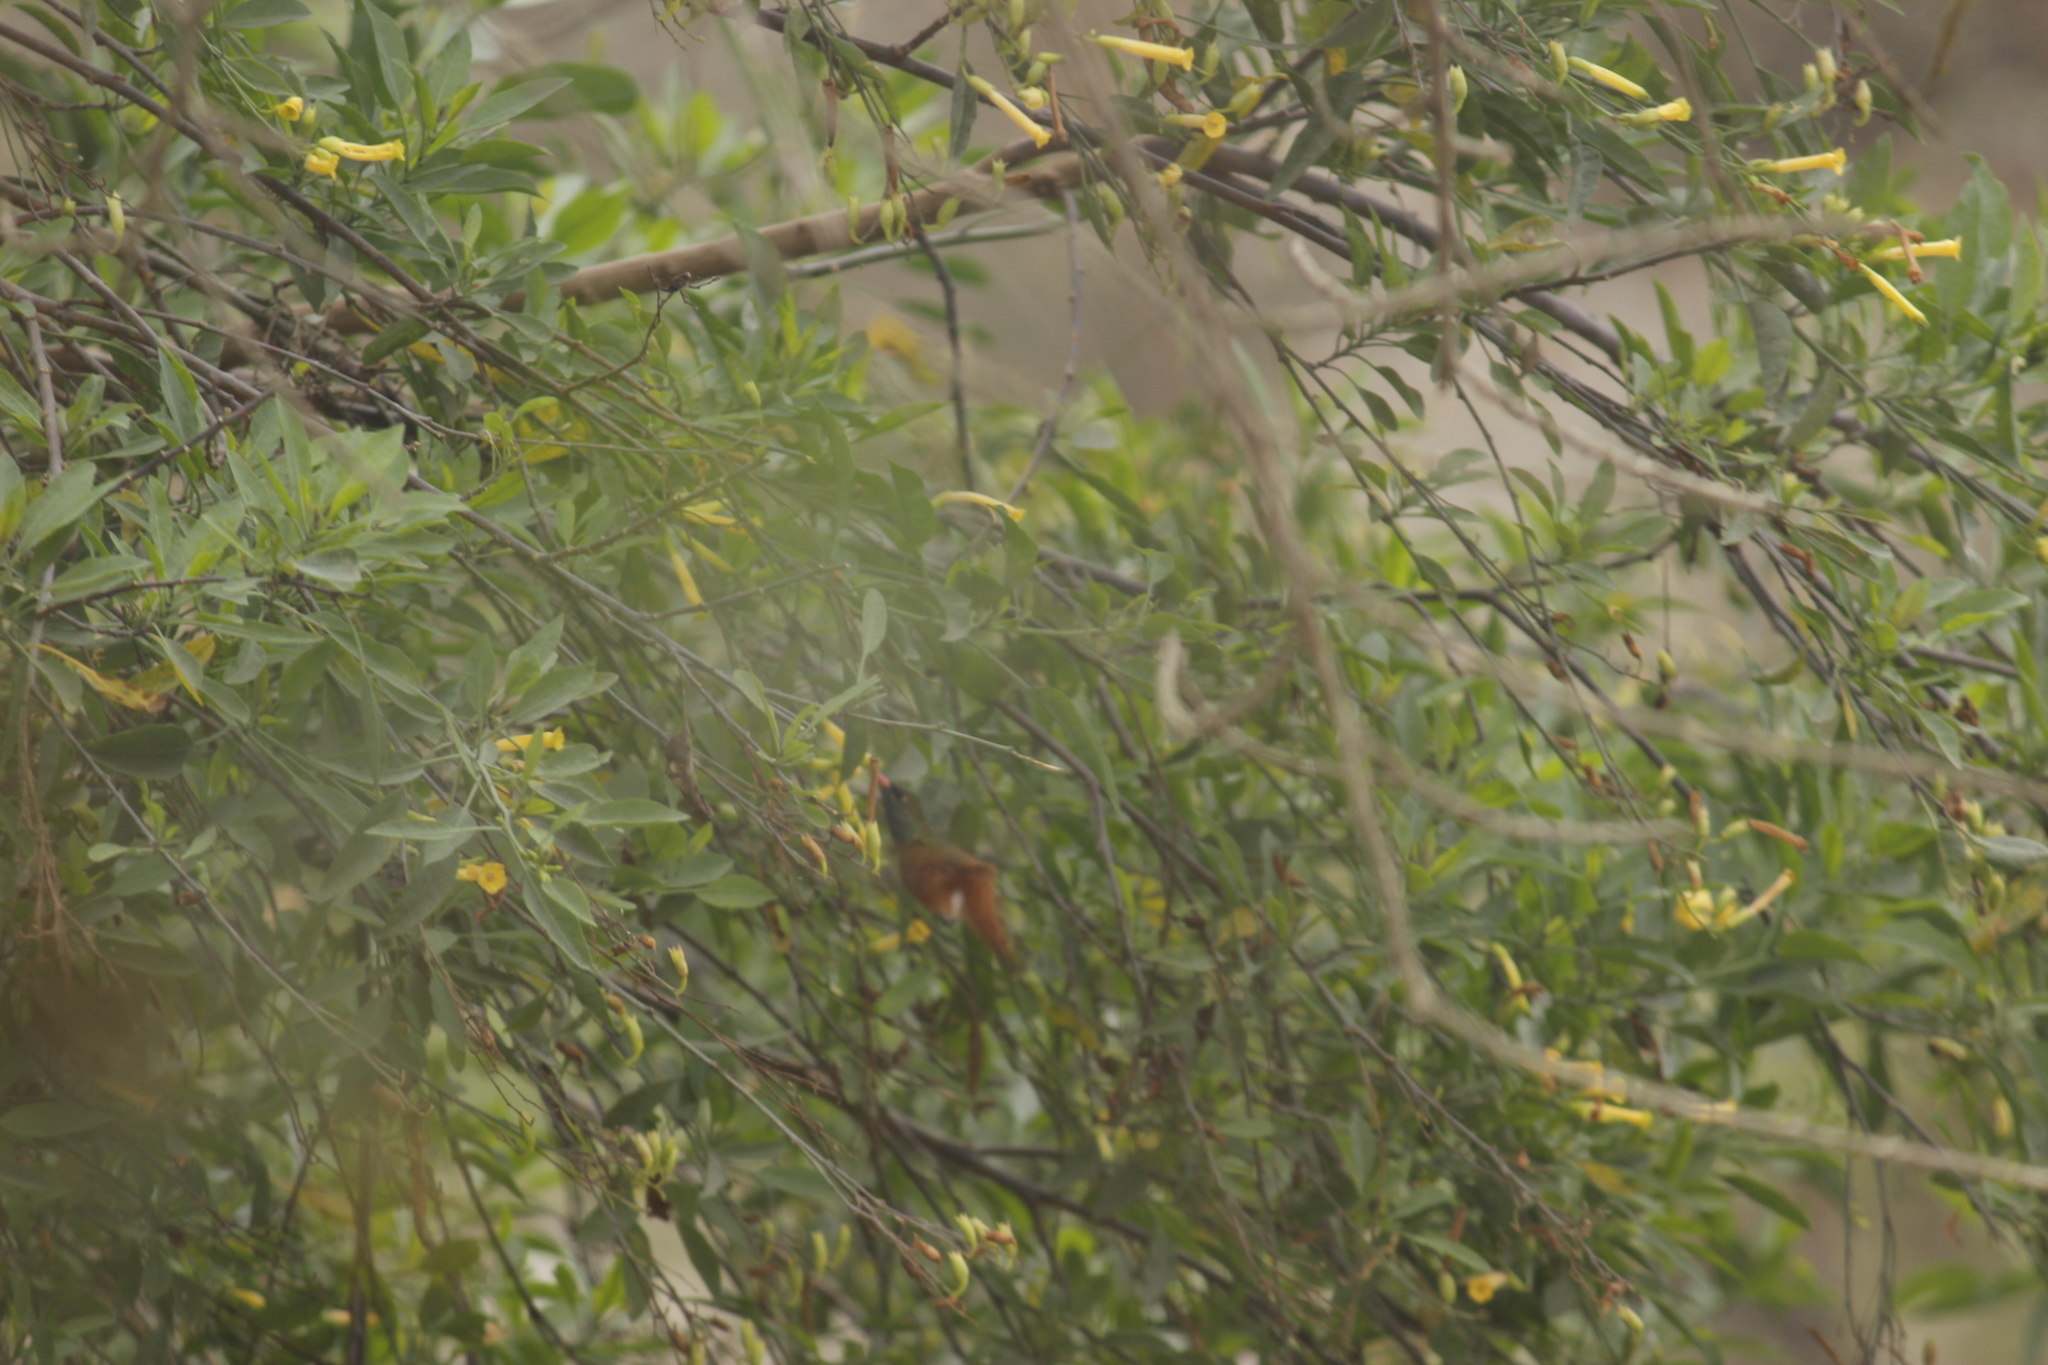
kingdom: Animalia
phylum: Chordata
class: Aves
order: Apodiformes
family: Trochilidae
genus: Amazilis
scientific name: Amazilis amazilia
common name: Amazilia hummingbird
